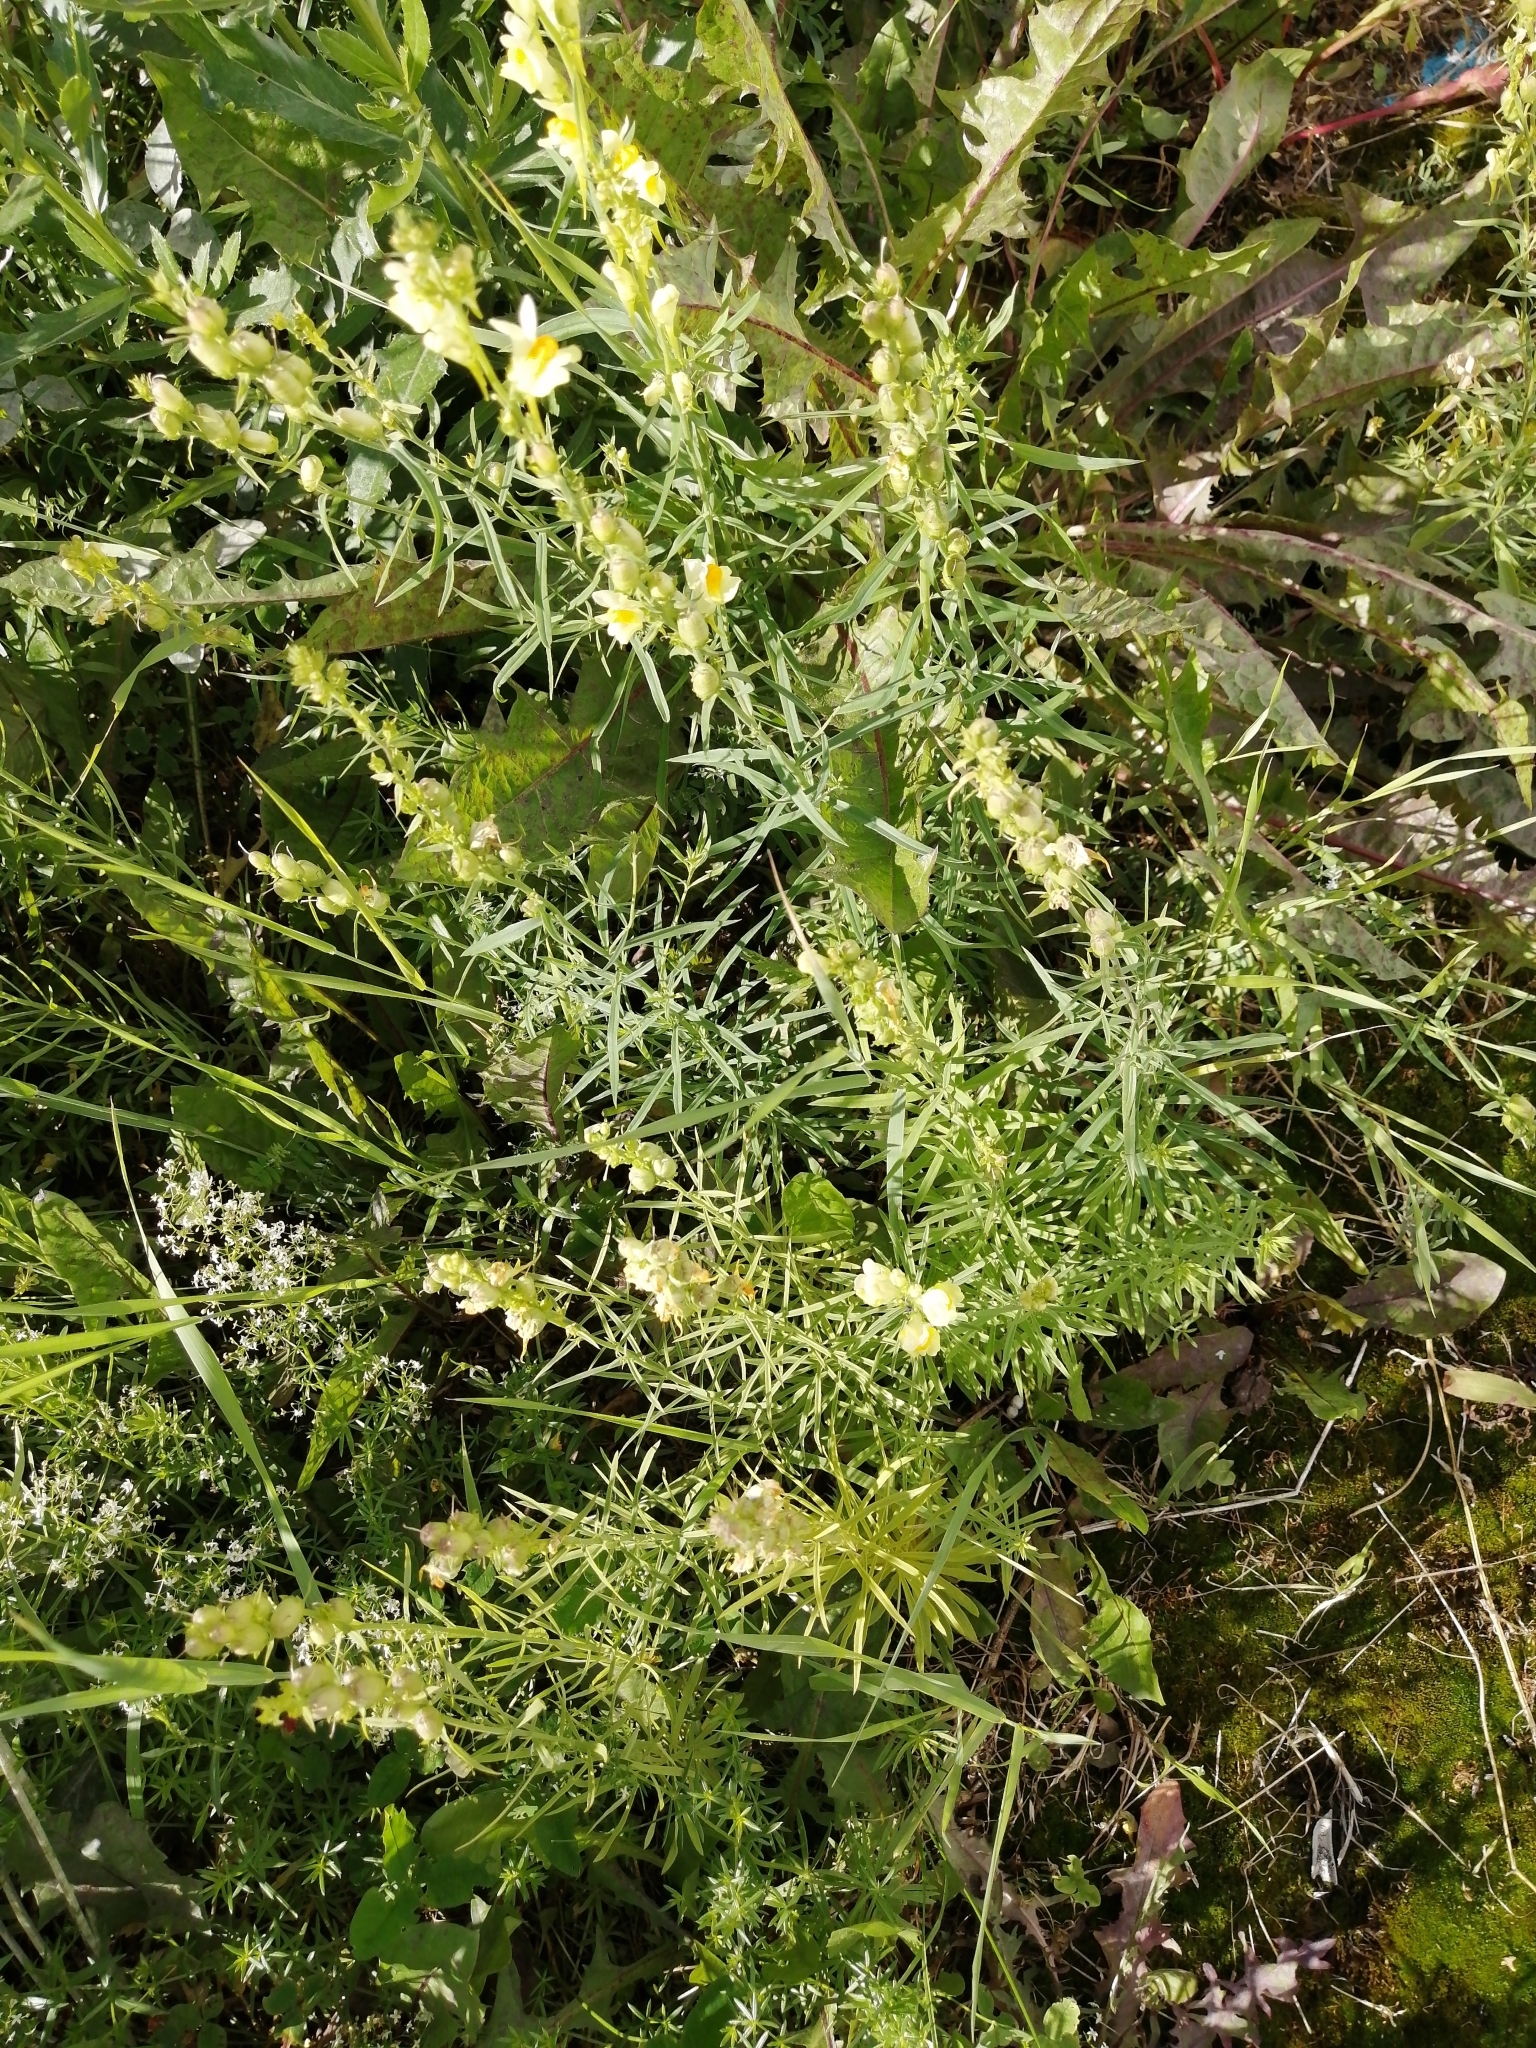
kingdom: Plantae
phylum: Tracheophyta
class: Magnoliopsida
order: Lamiales
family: Plantaginaceae
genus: Linaria
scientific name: Linaria vulgaris
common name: Butter and eggs
